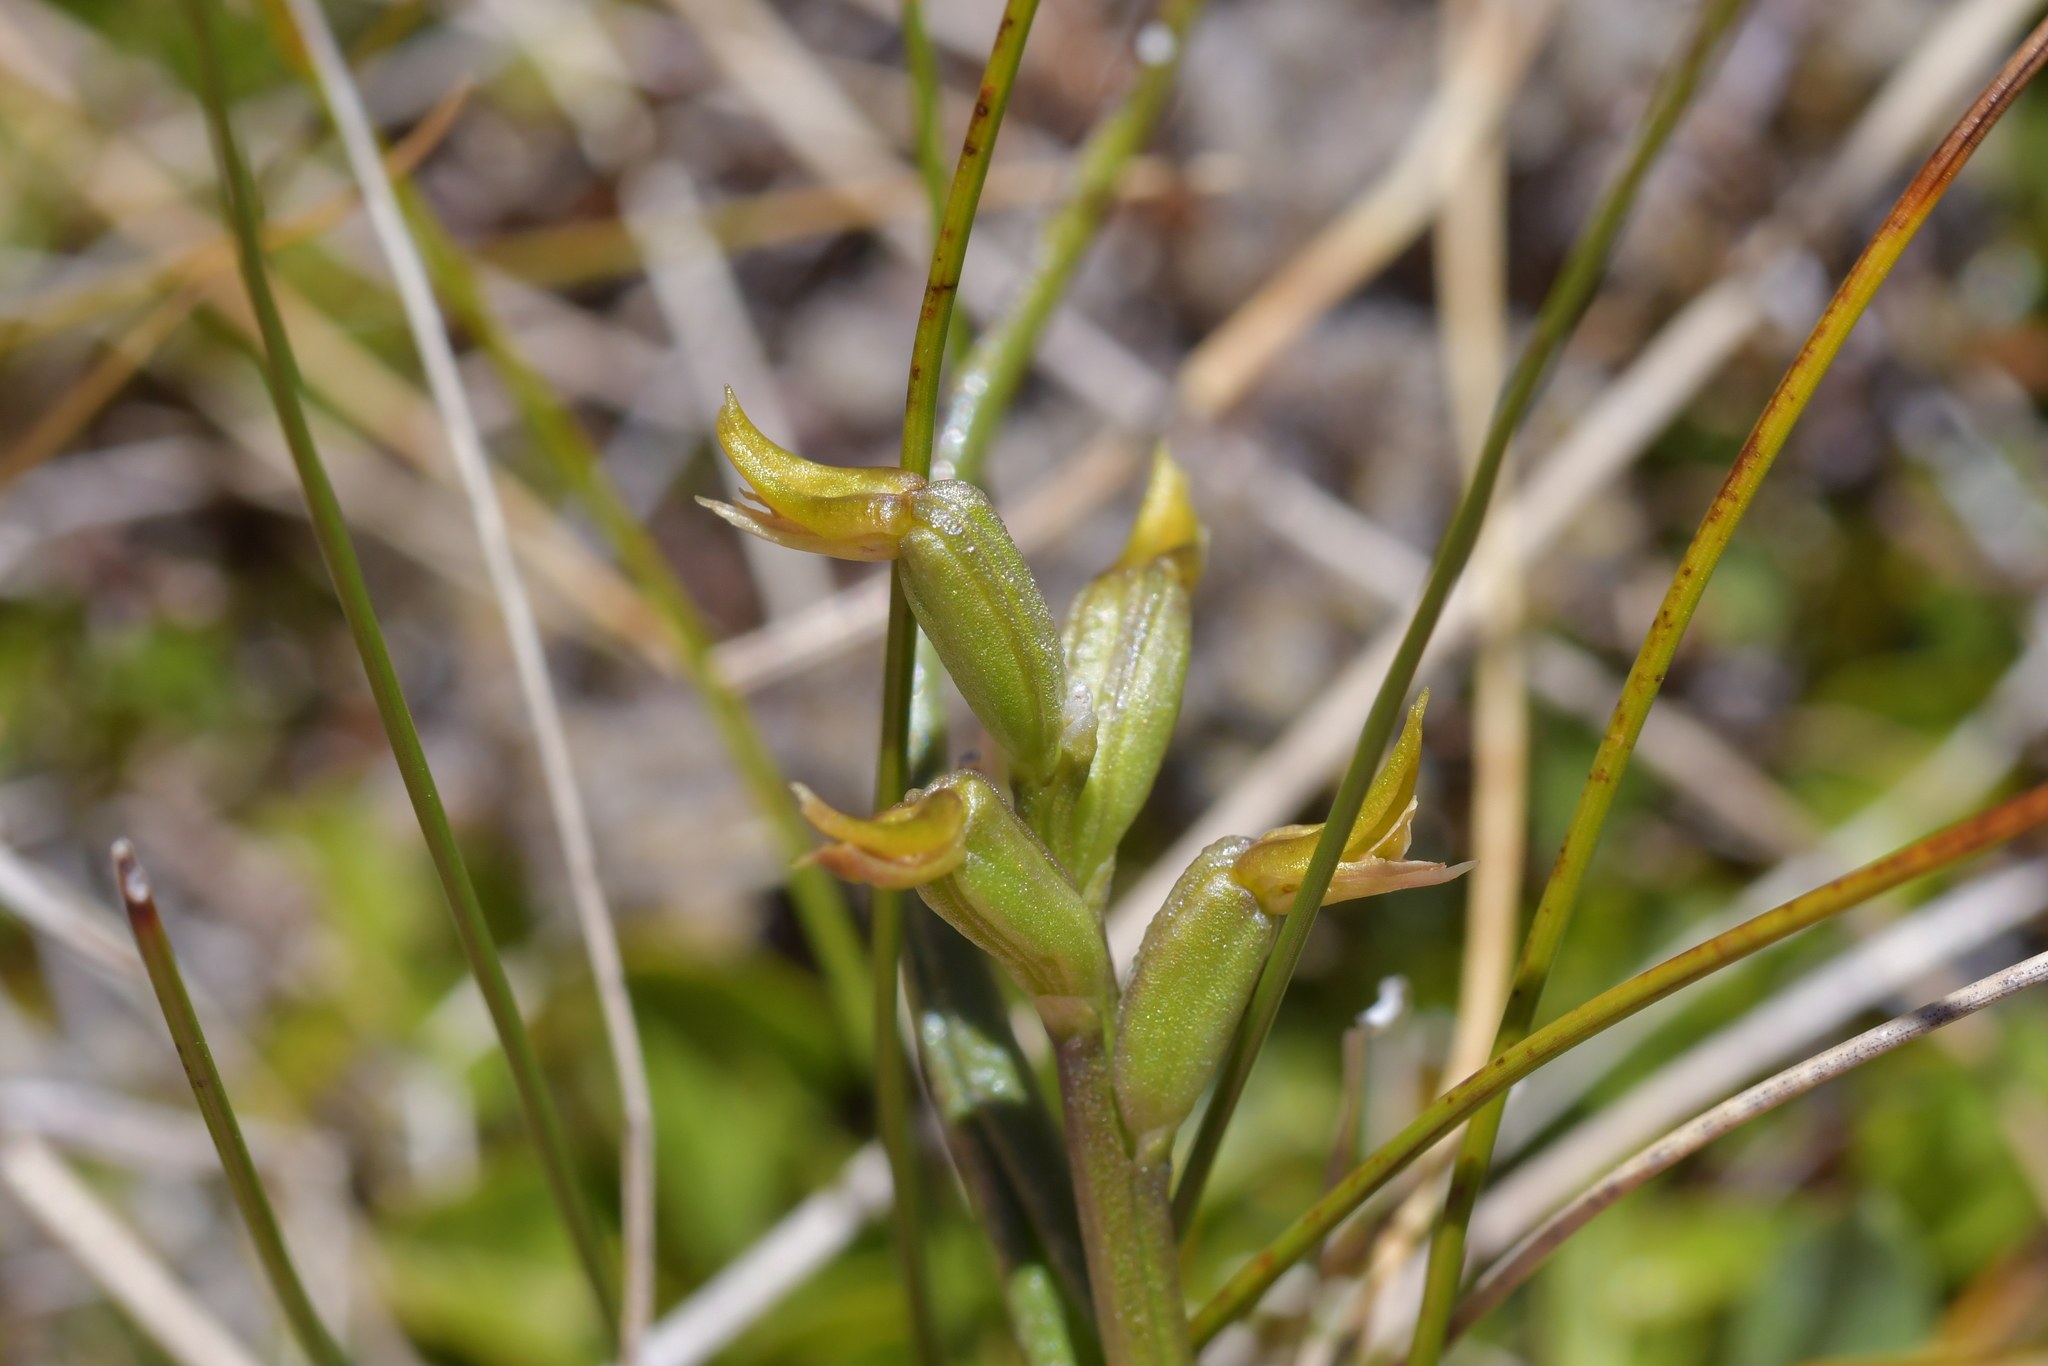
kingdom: Plantae
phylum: Tracheophyta
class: Liliopsida
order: Asparagales
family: Orchidaceae
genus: Prasophyllum
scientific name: Prasophyllum colensoi
